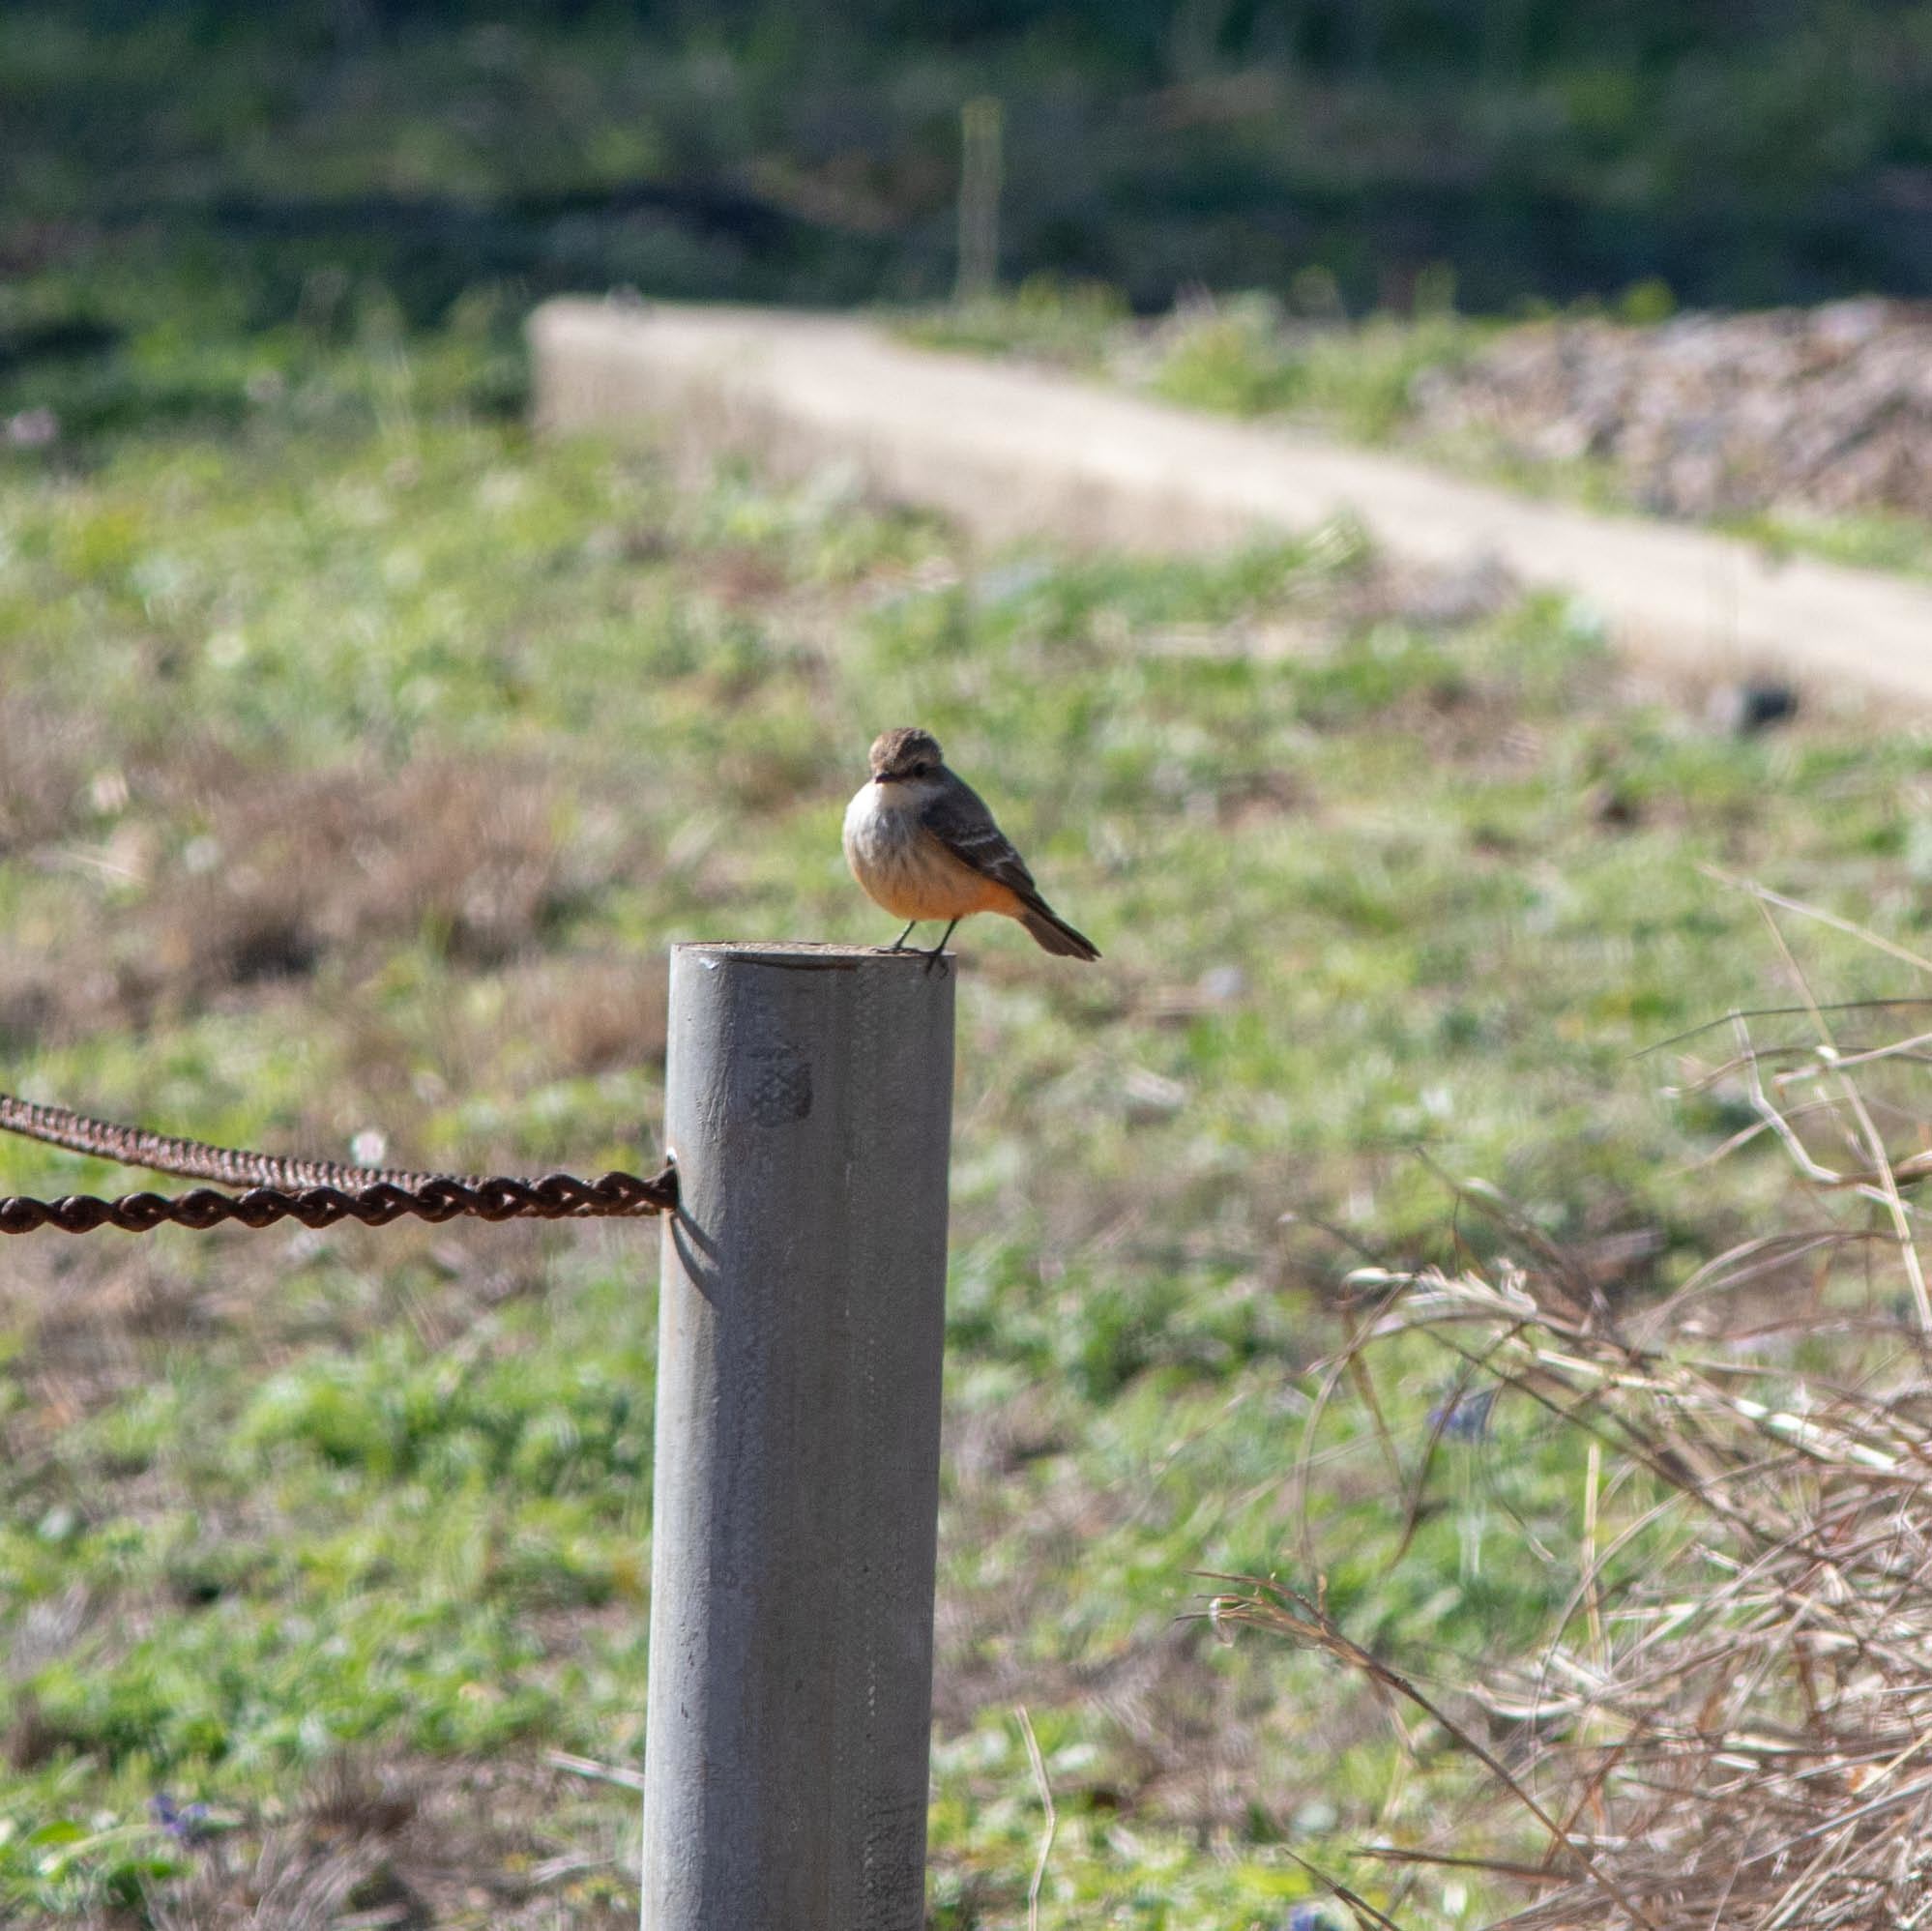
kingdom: Animalia
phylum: Chordata
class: Aves
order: Passeriformes
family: Tyrannidae
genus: Pyrocephalus
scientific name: Pyrocephalus rubinus
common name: Vermilion flycatcher
